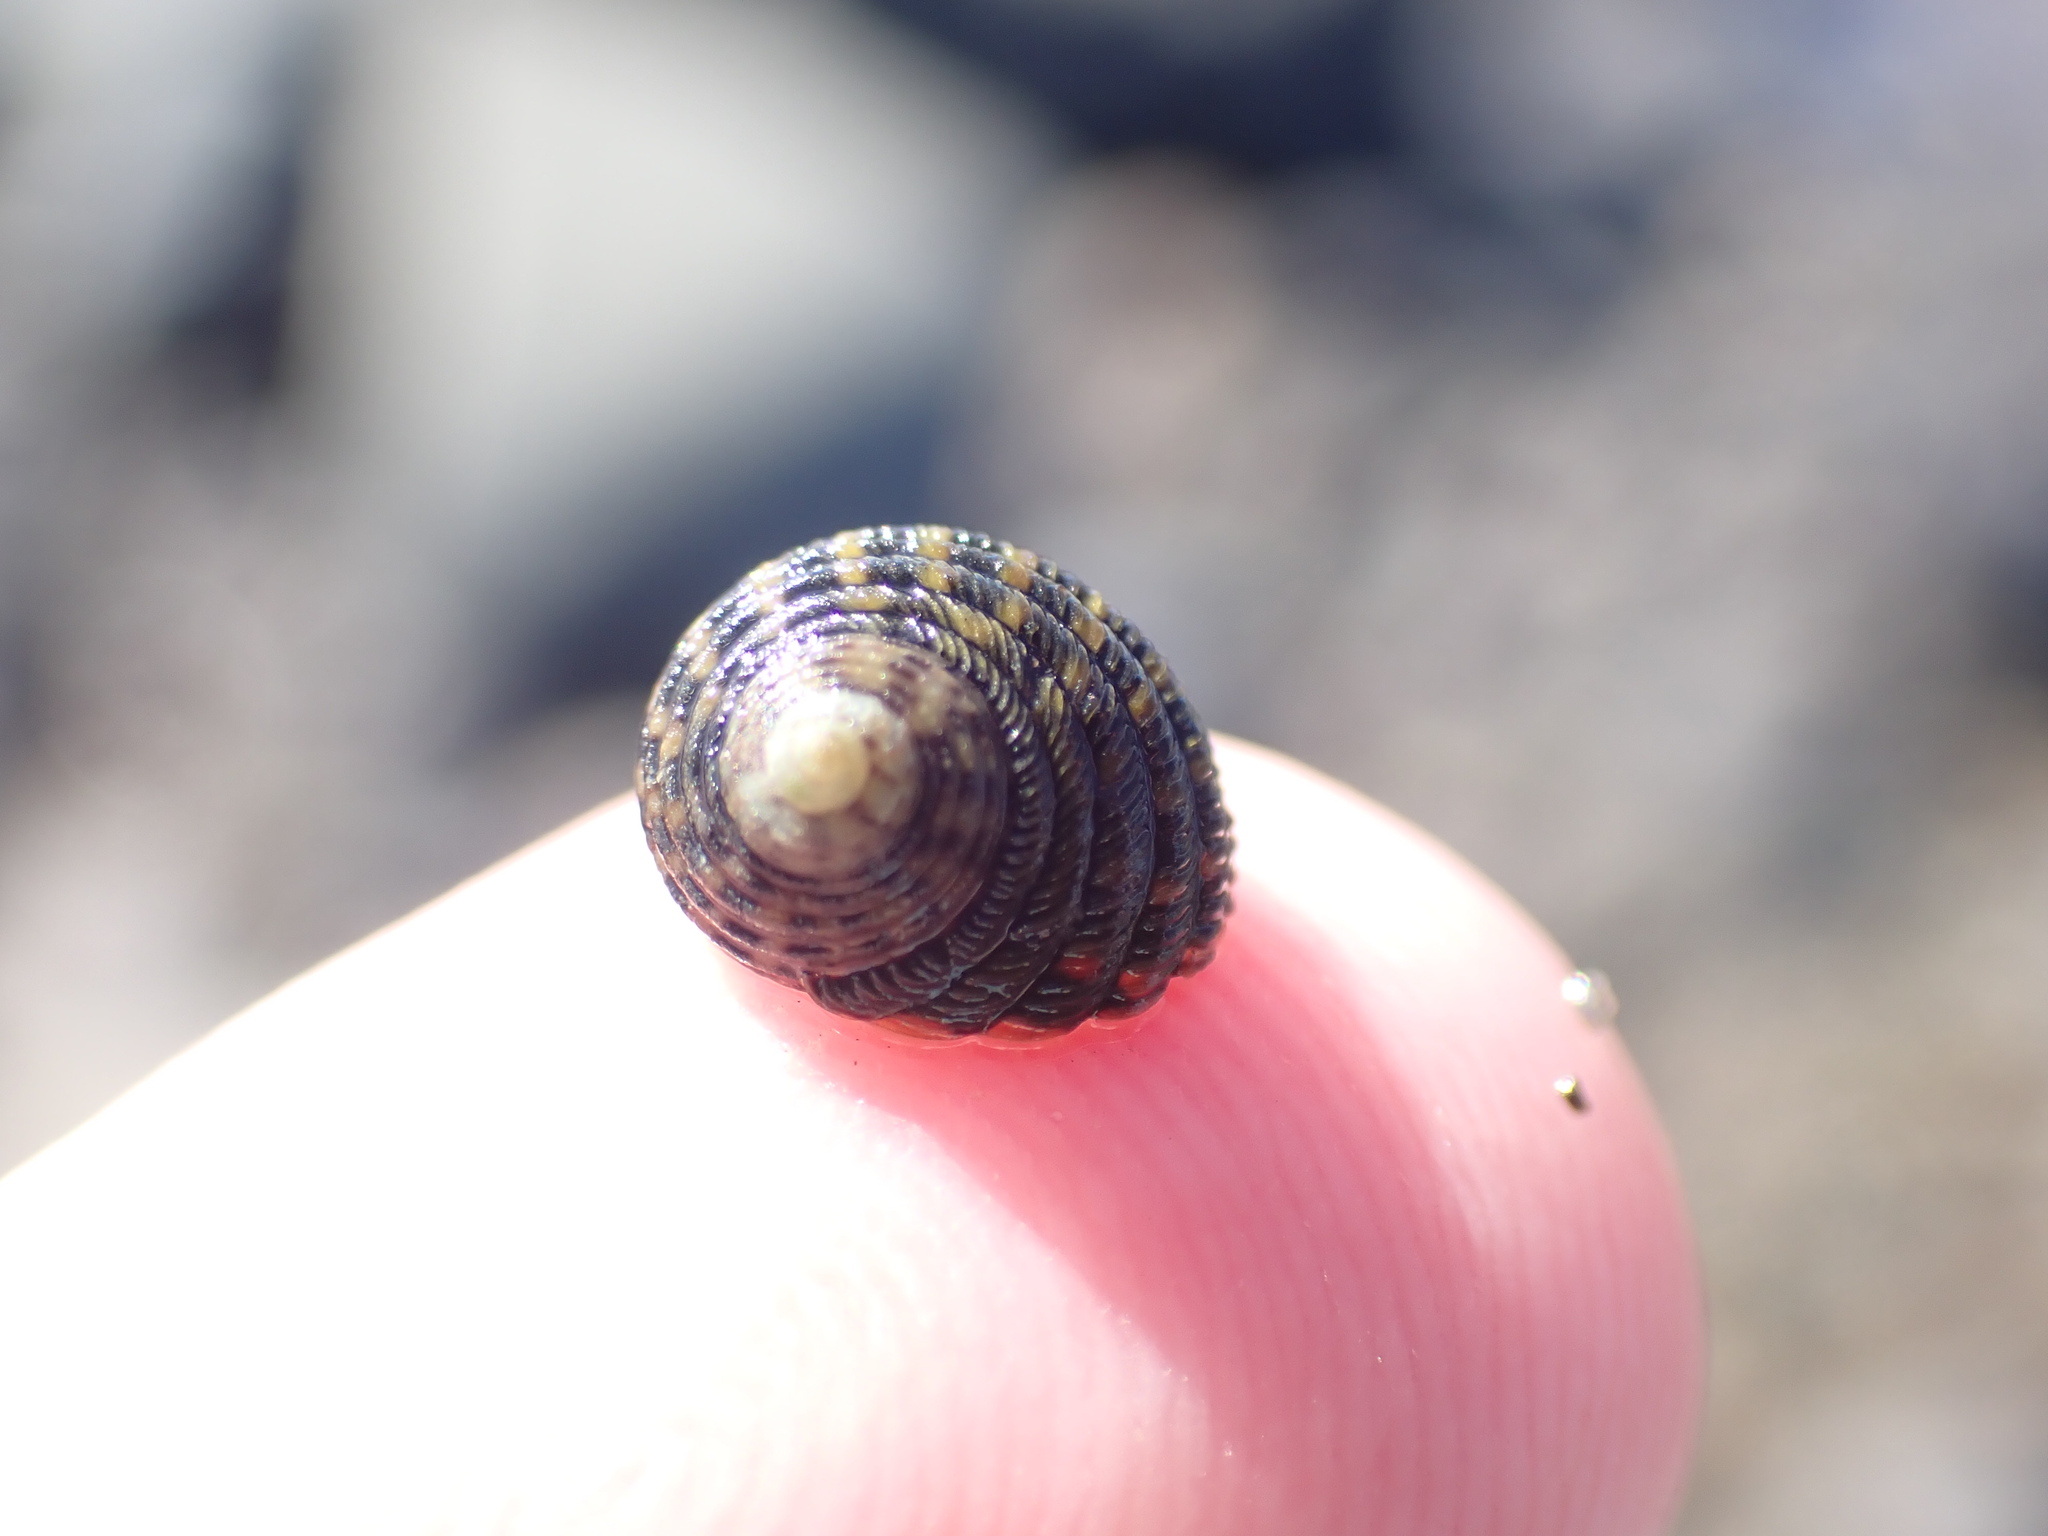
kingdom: Animalia
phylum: Mollusca
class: Gastropoda
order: Trochida
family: Trochidae
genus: Diloma
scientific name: Diloma aethiops
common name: Scorched monodont
